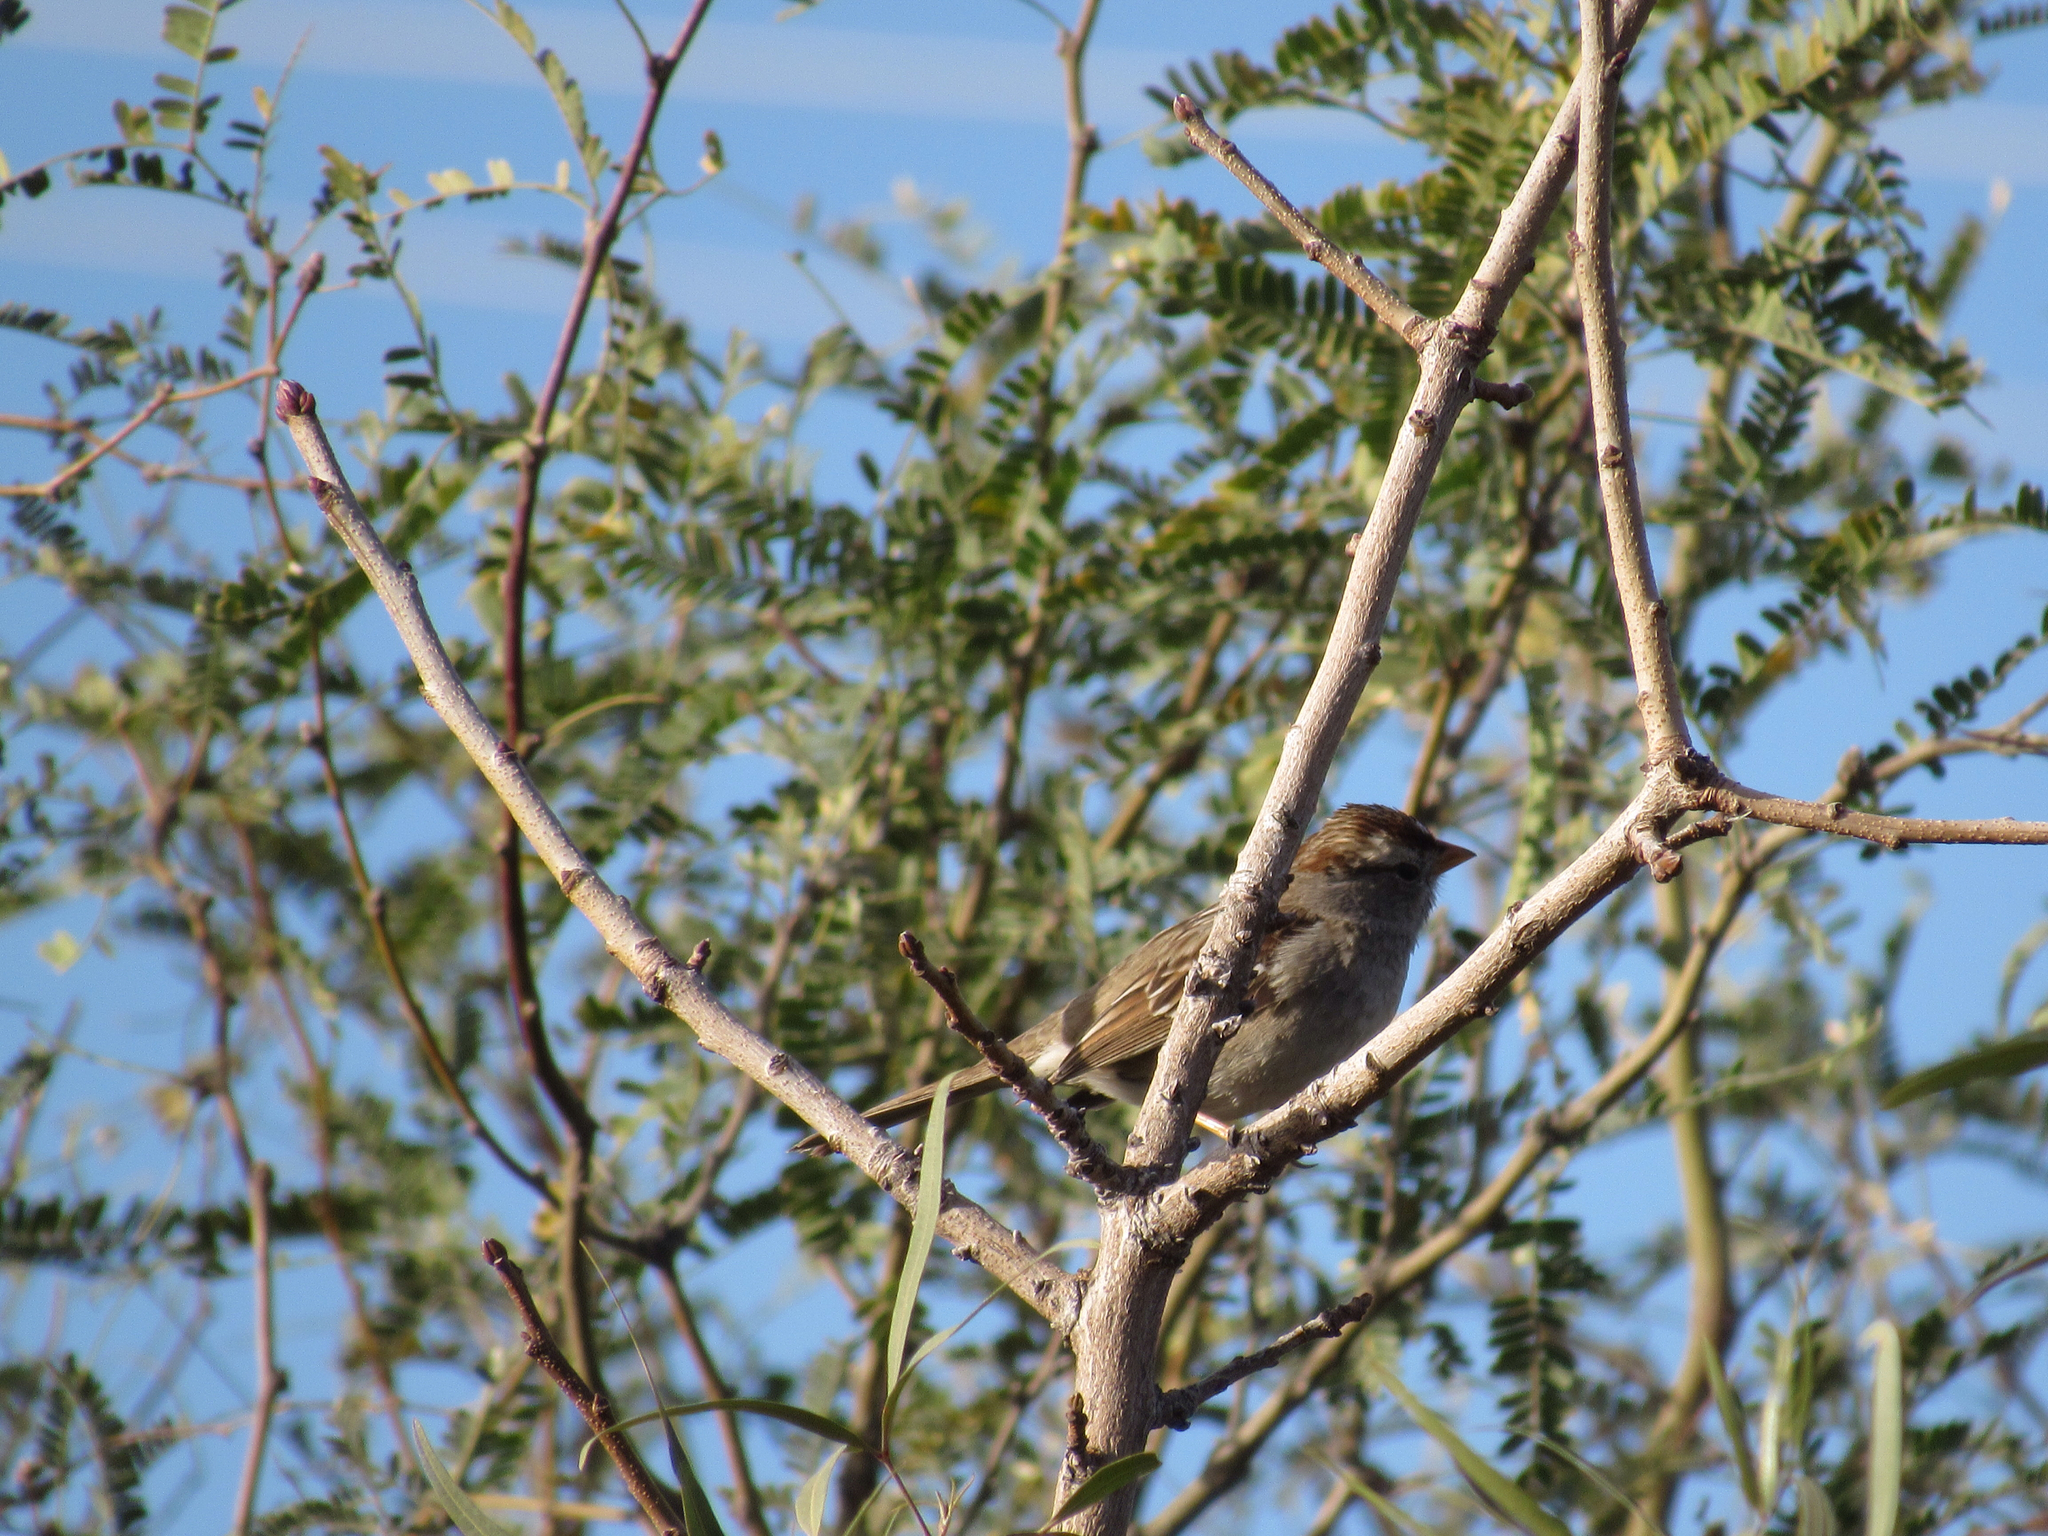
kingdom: Animalia
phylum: Chordata
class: Aves
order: Passeriformes
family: Passerellidae
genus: Zonotrichia
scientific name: Zonotrichia leucophrys
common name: White-crowned sparrow
